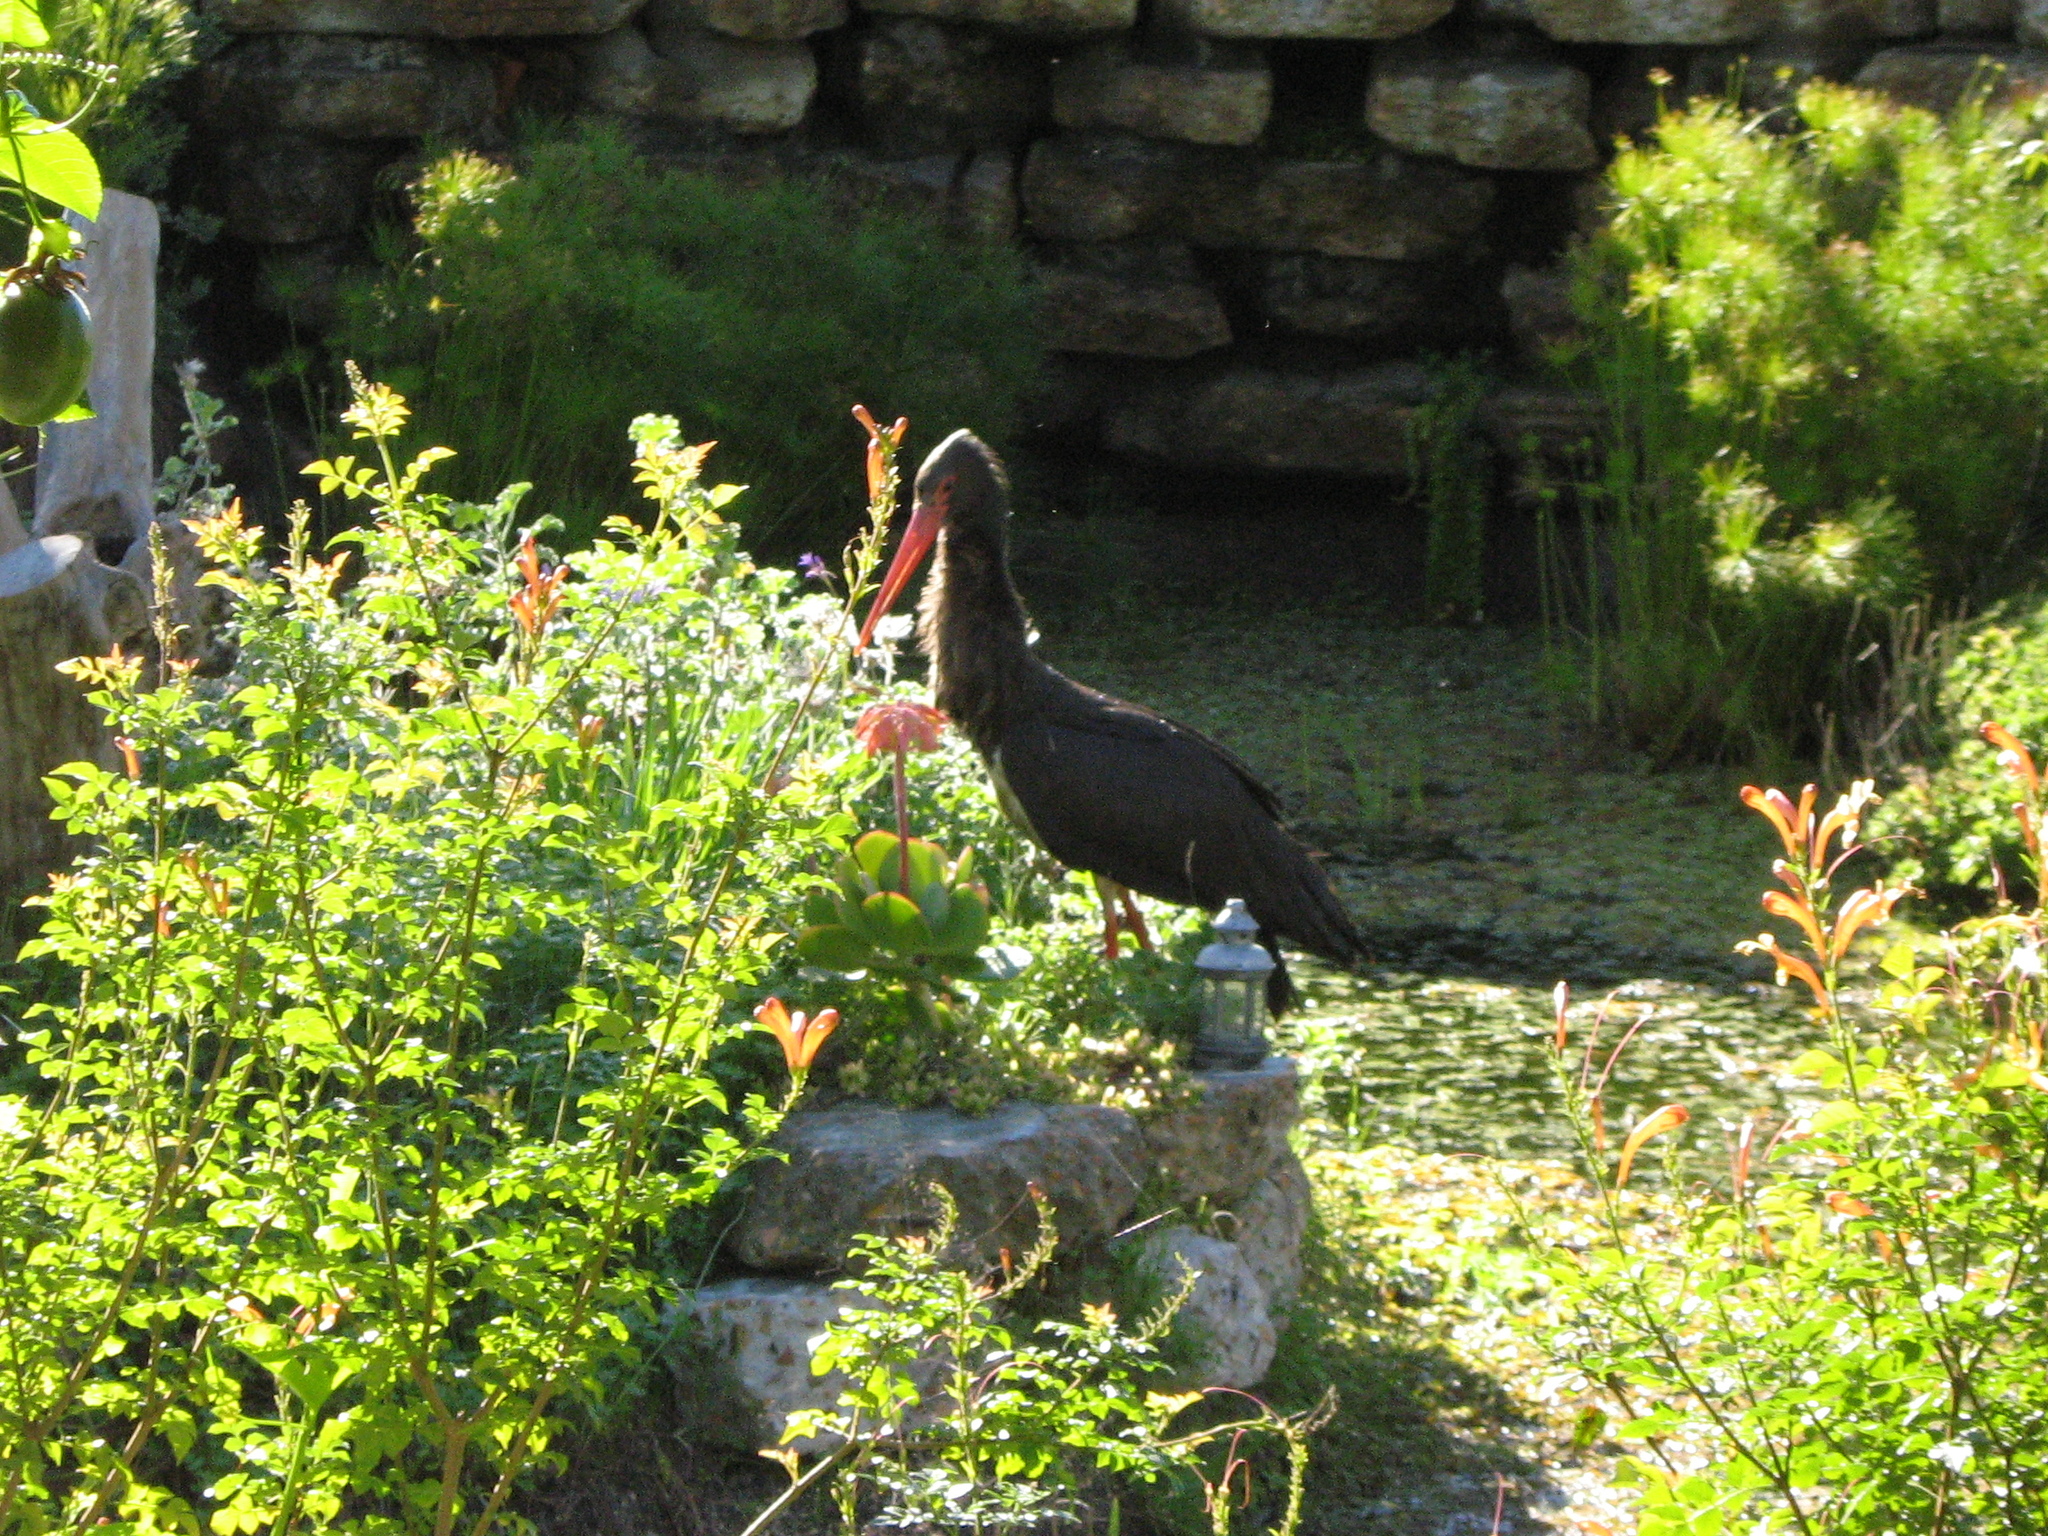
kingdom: Animalia
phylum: Chordata
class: Aves
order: Ciconiiformes
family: Ciconiidae
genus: Ciconia
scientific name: Ciconia nigra
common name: Black stork
